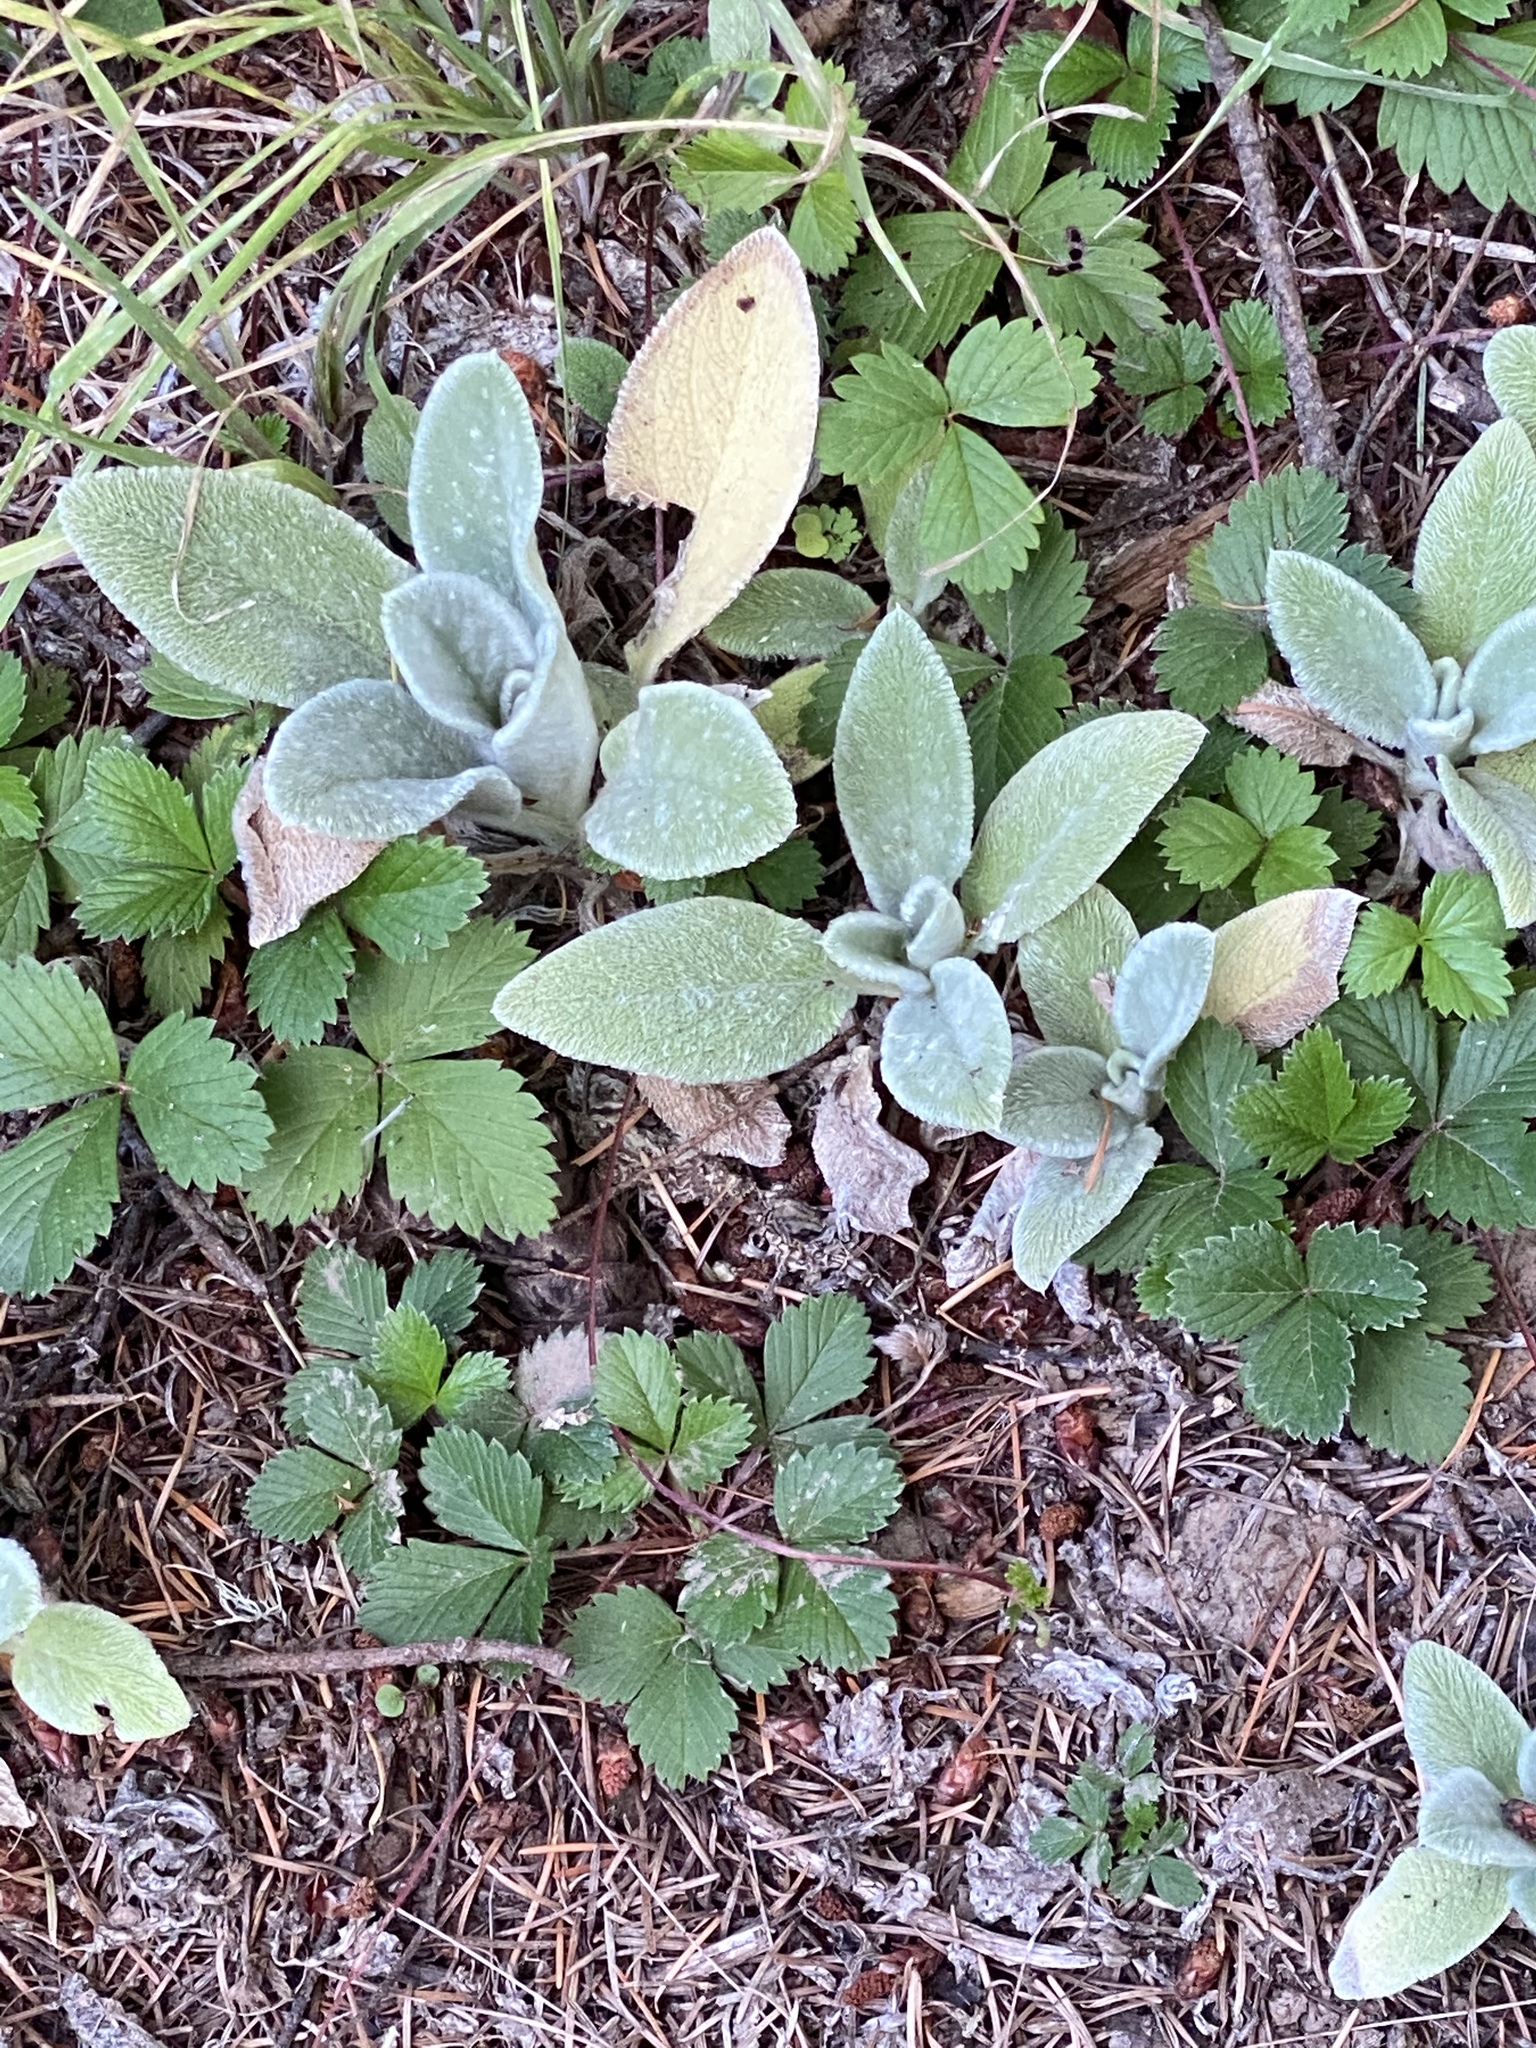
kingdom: Plantae
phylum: Tracheophyta
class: Magnoliopsida
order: Lamiales
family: Lamiaceae
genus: Stachys
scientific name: Stachys byzantina
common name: Lamb's-ear
